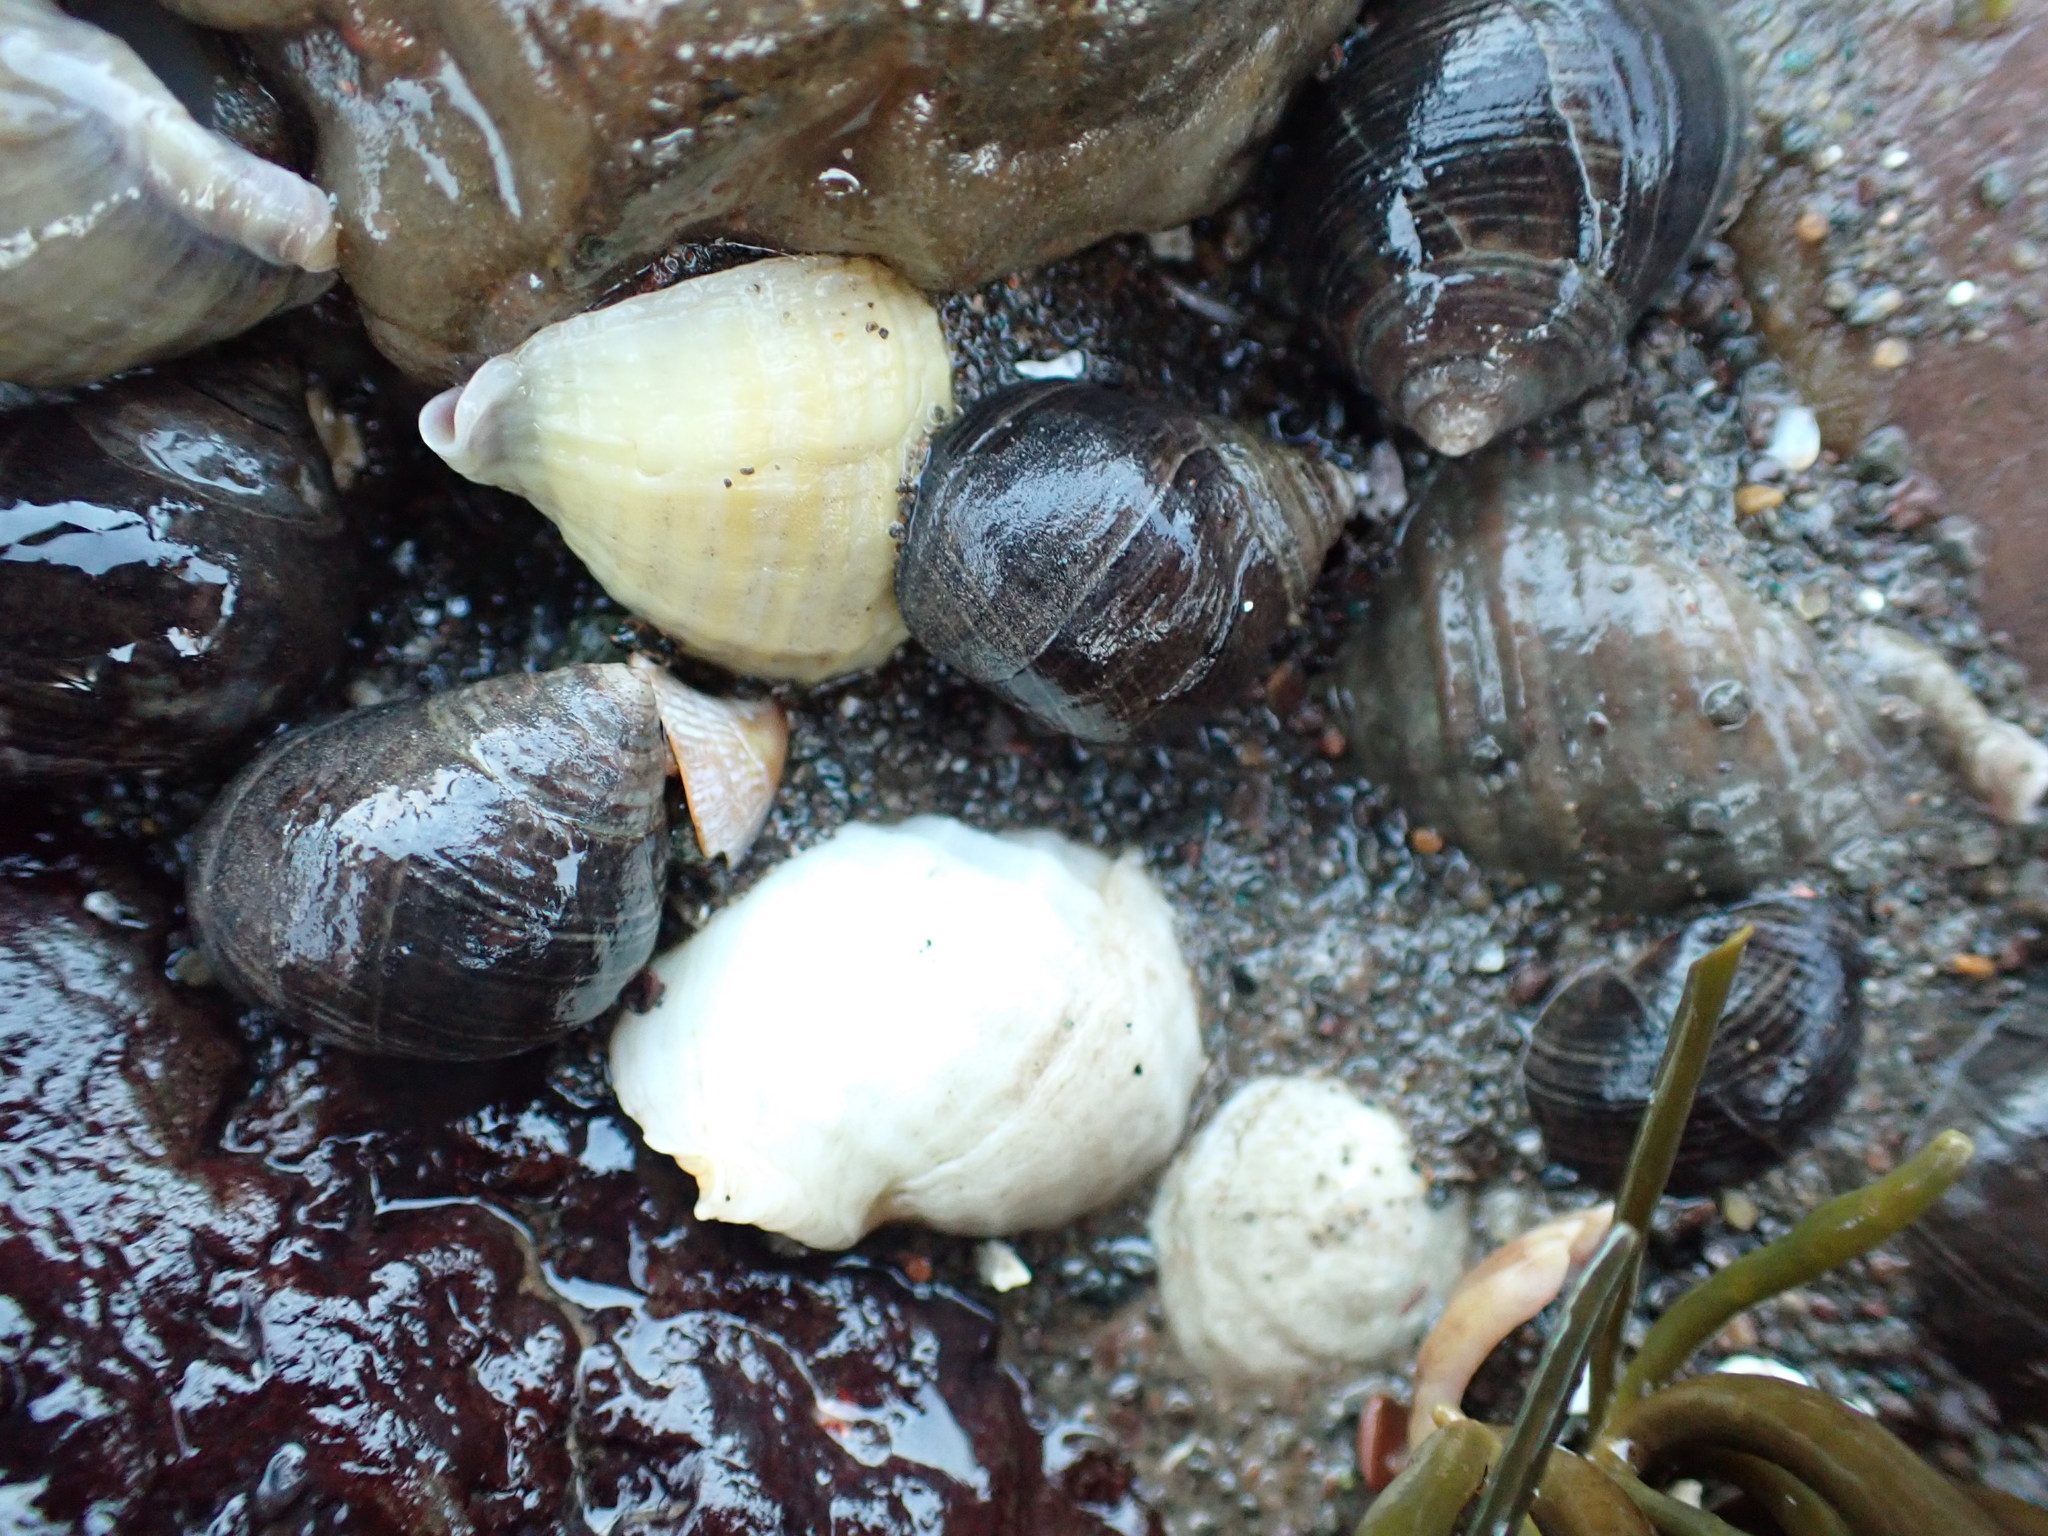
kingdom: Animalia
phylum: Mollusca
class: Gastropoda
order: Neogastropoda
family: Muricidae
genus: Nucella
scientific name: Nucella lapillus
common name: Dog whelk
